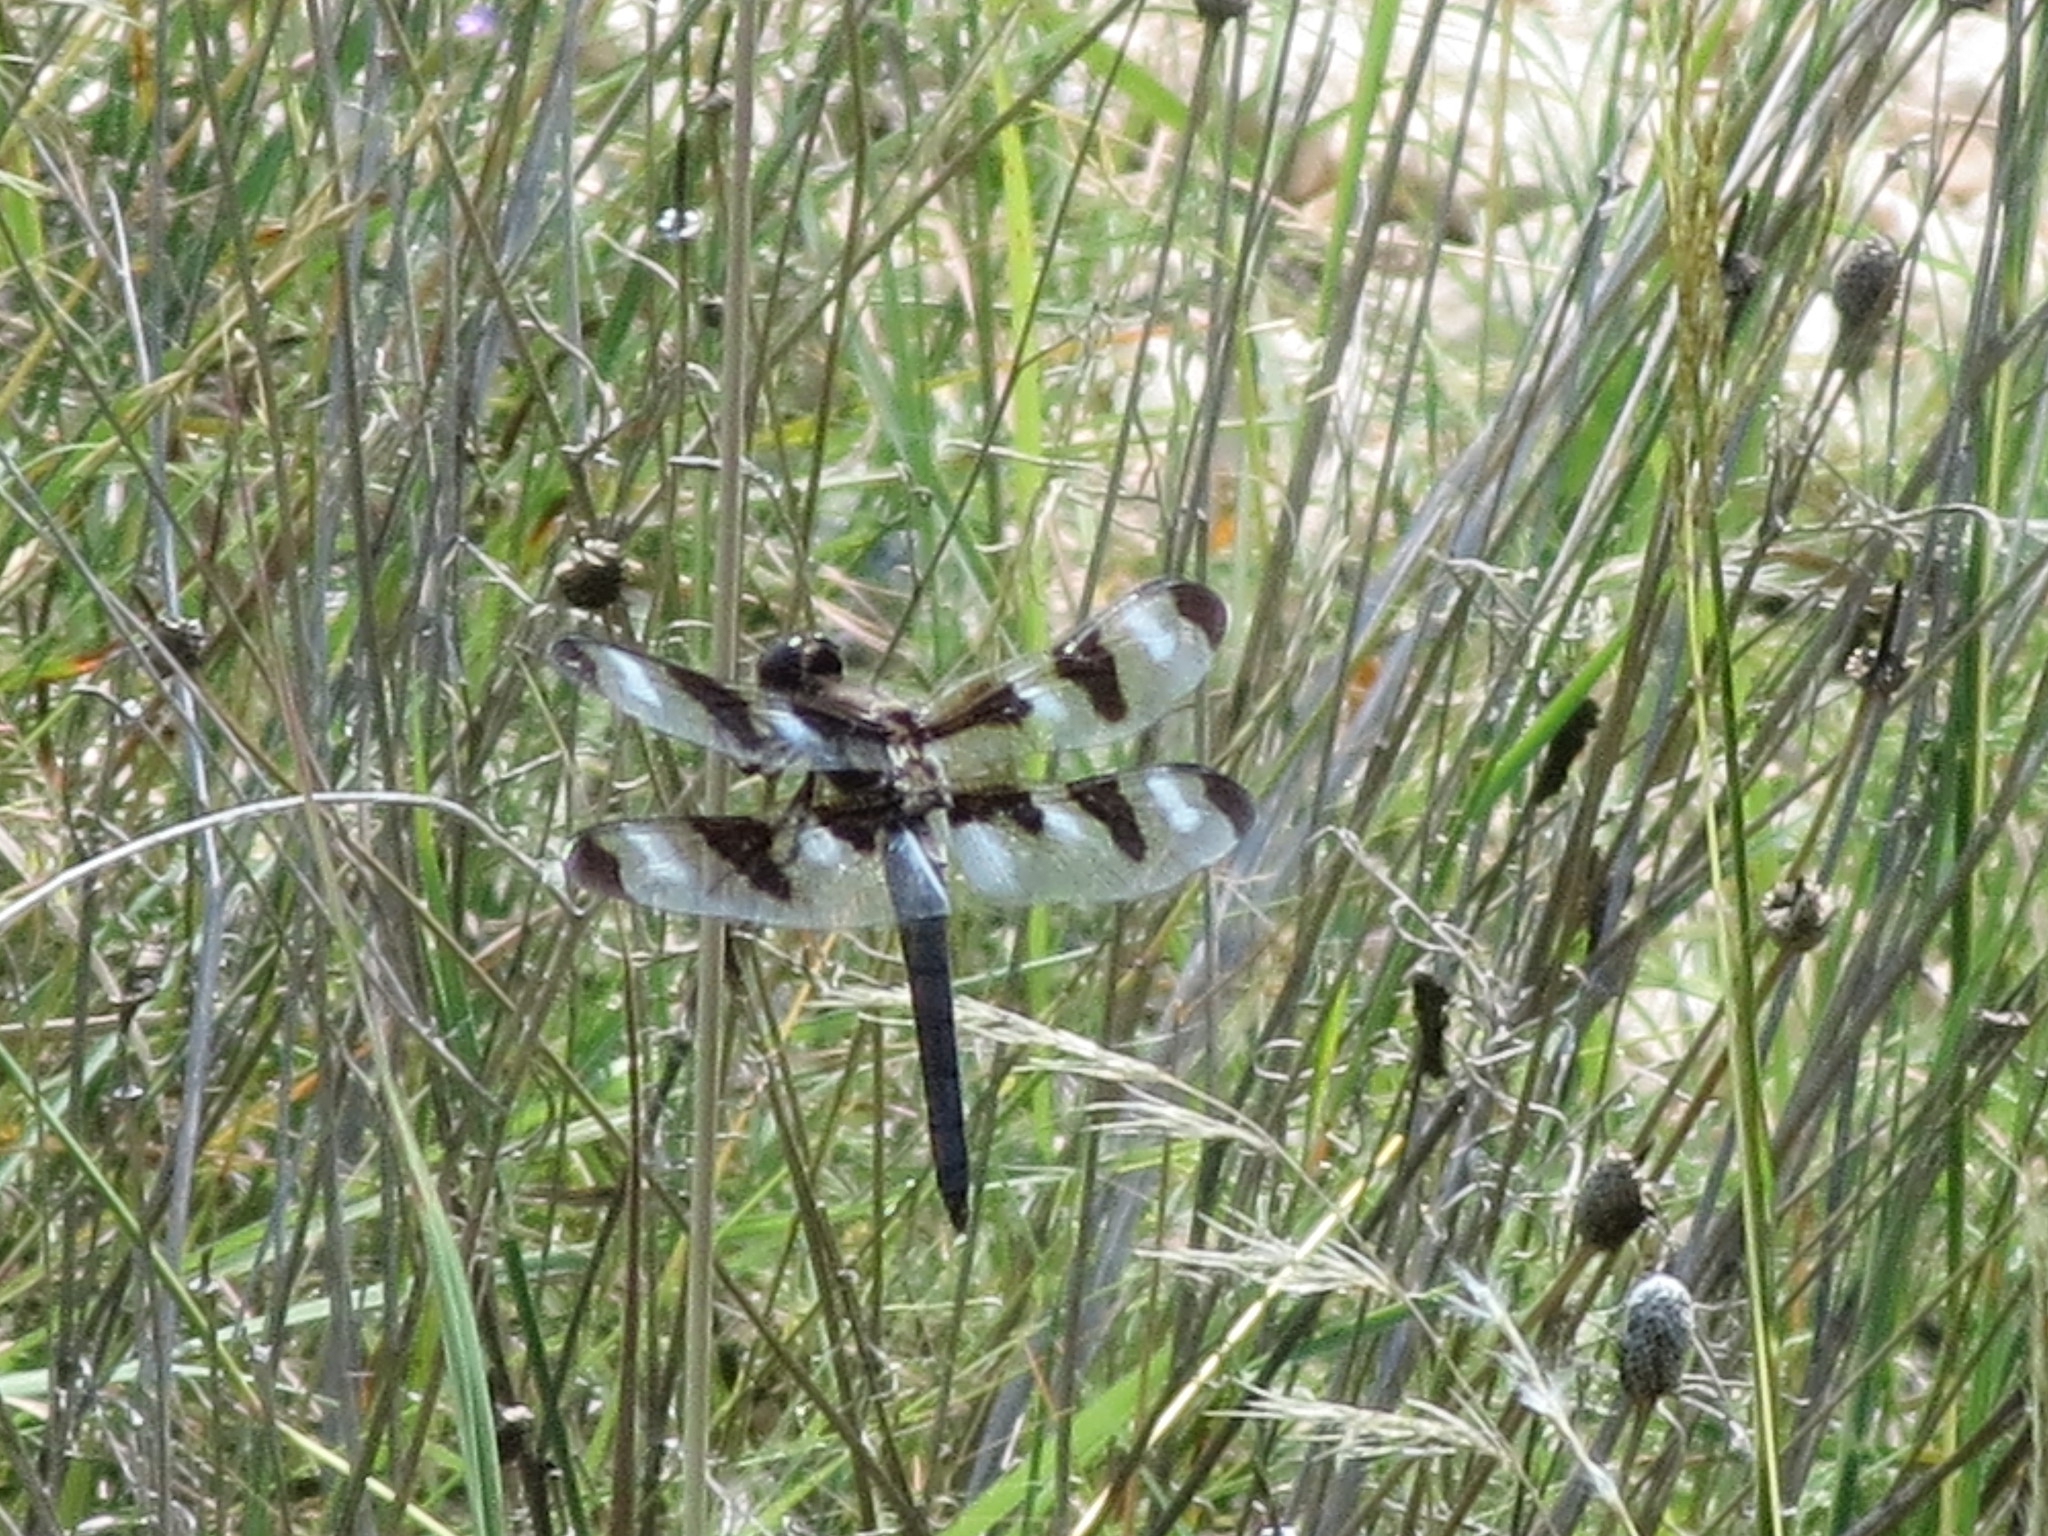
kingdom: Animalia
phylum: Arthropoda
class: Insecta
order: Odonata
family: Libellulidae
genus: Libellula
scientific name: Libellula pulchella
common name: Twelve-spotted skimmer
